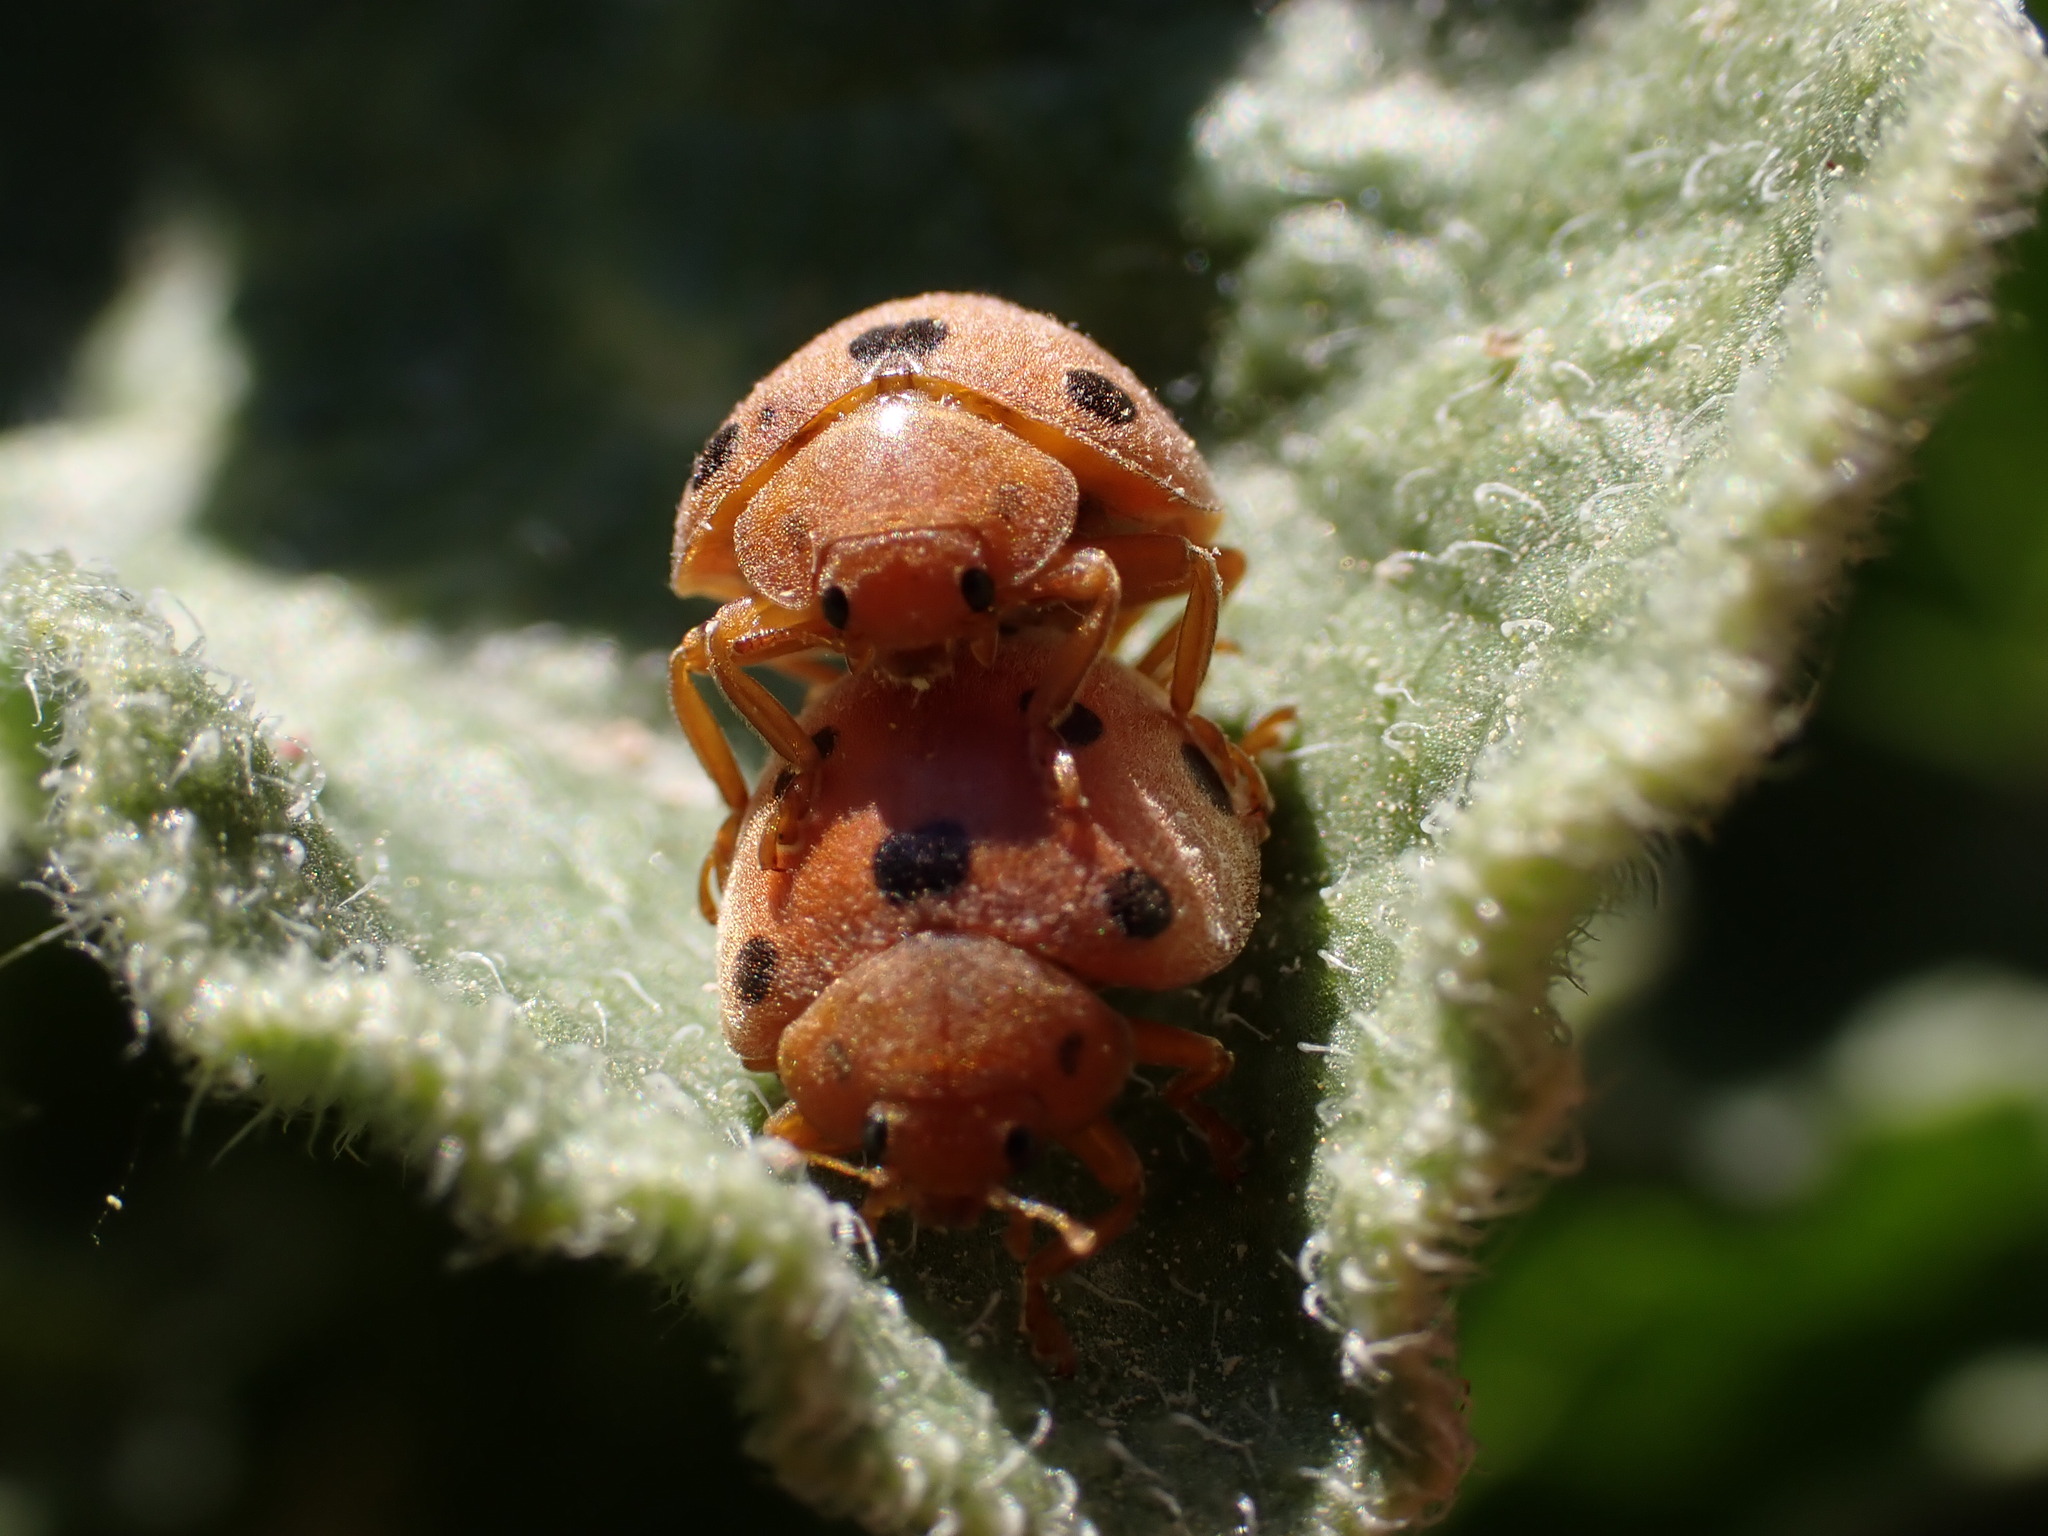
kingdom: Animalia
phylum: Arthropoda
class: Insecta
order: Coleoptera
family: Coccinellidae
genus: Henosepilachna
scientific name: Henosepilachna argus
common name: Bryony ladybird
